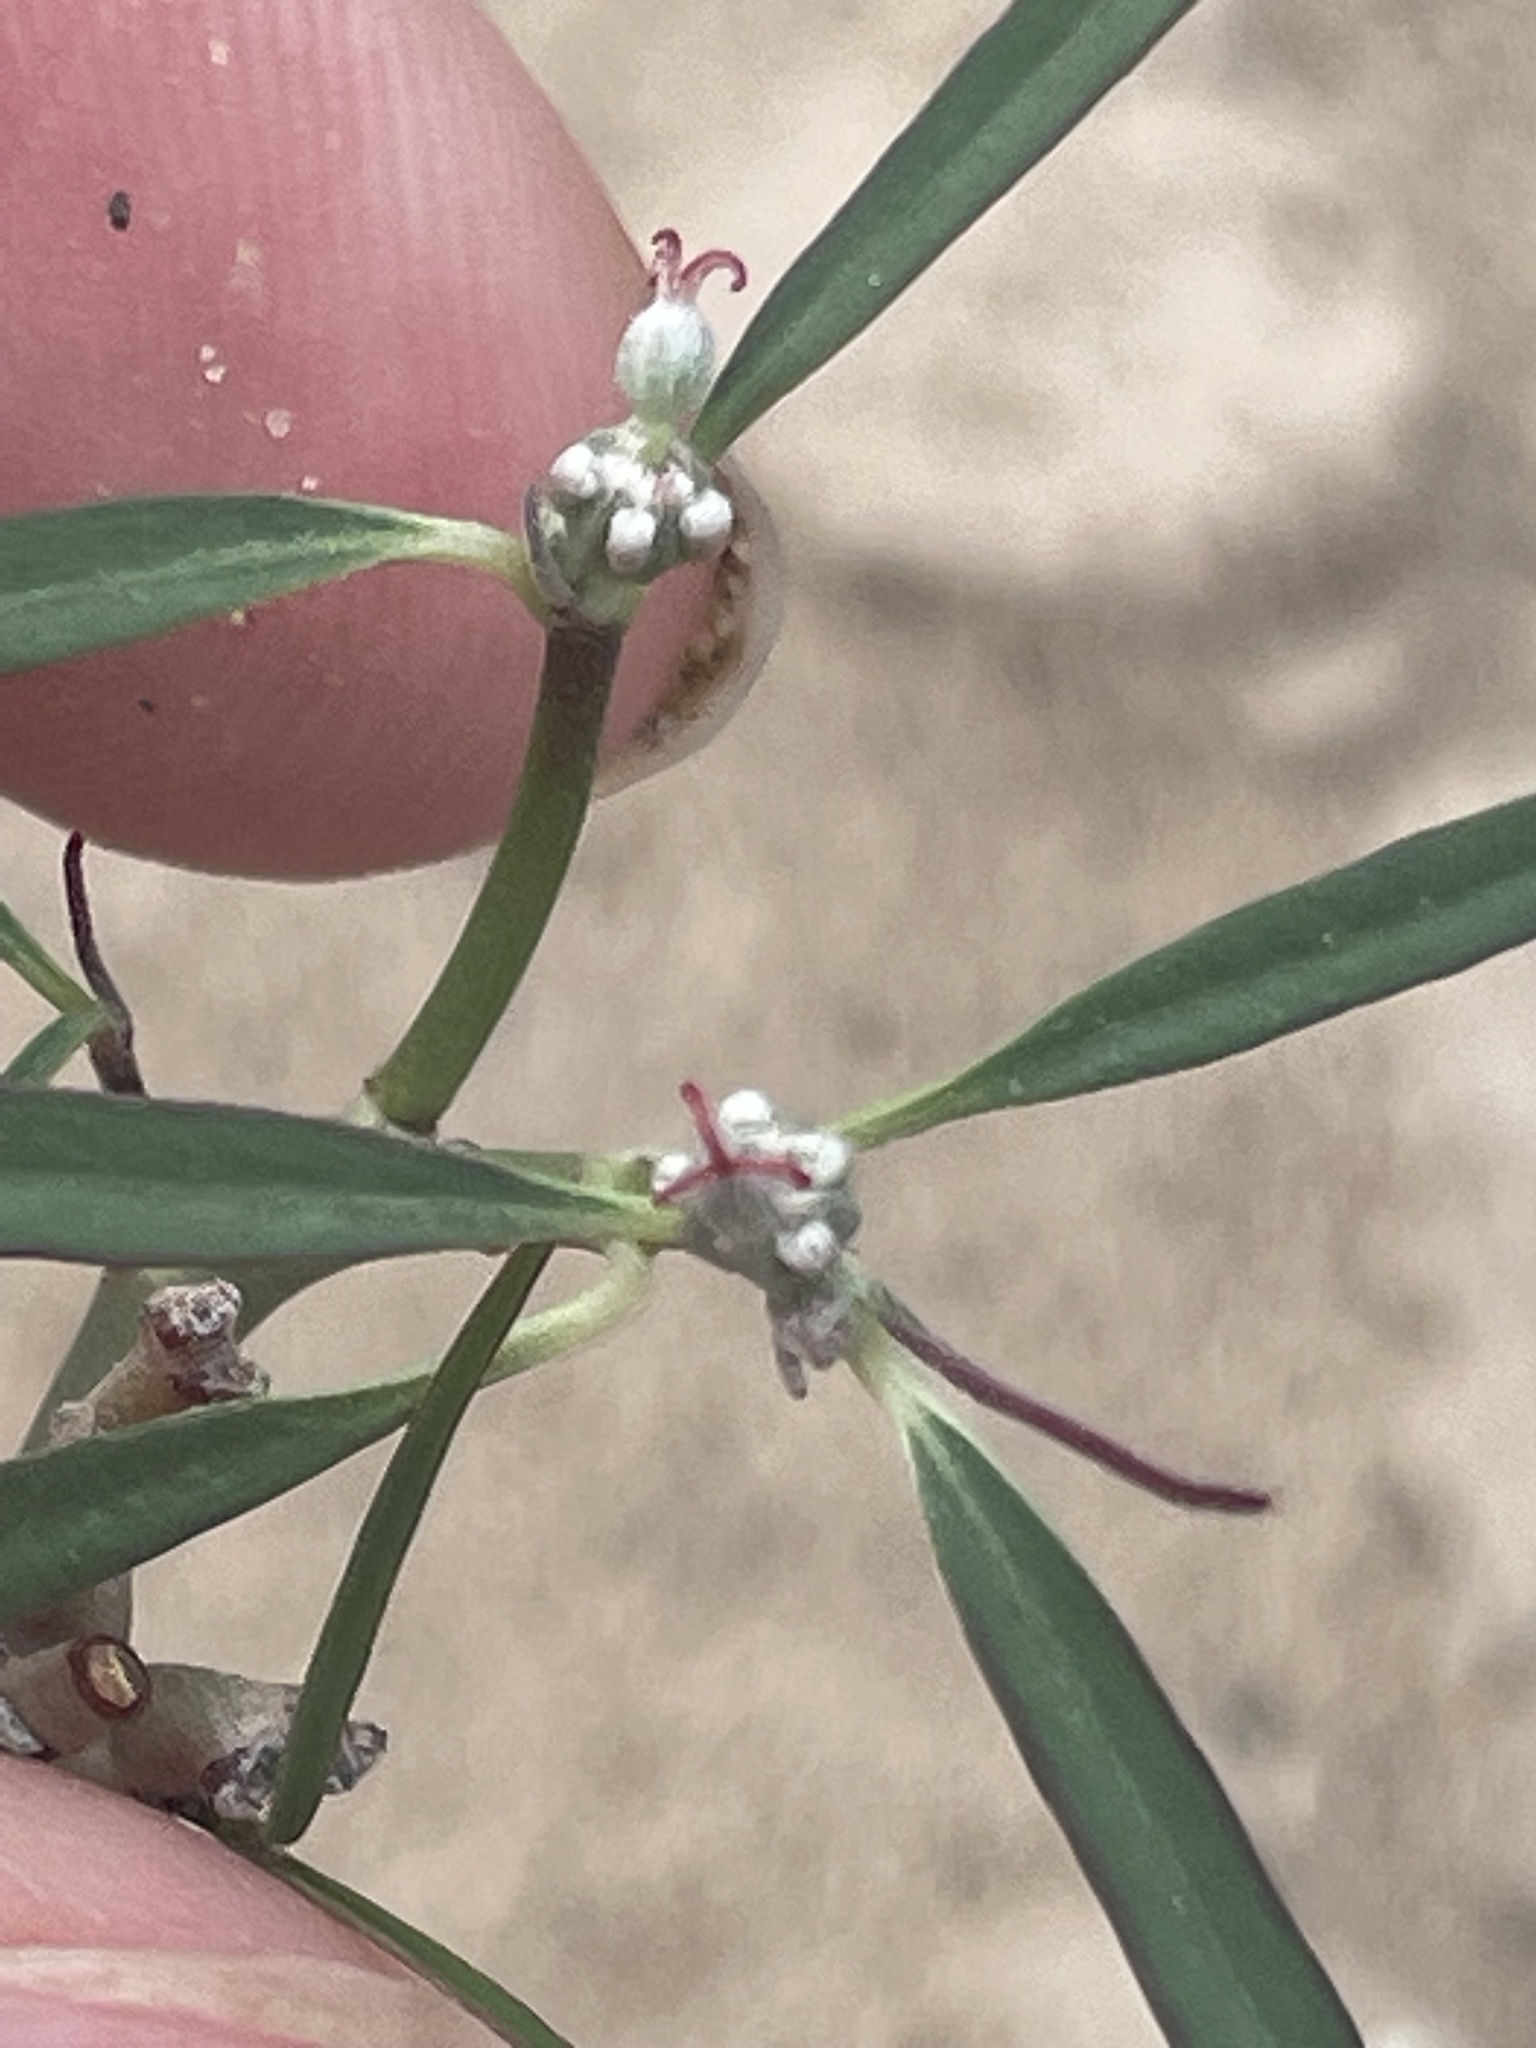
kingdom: Plantae
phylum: Tracheophyta
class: Magnoliopsida
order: Malpighiales
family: Euphorbiaceae
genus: Euphorbia
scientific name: Euphorbia eriantha
